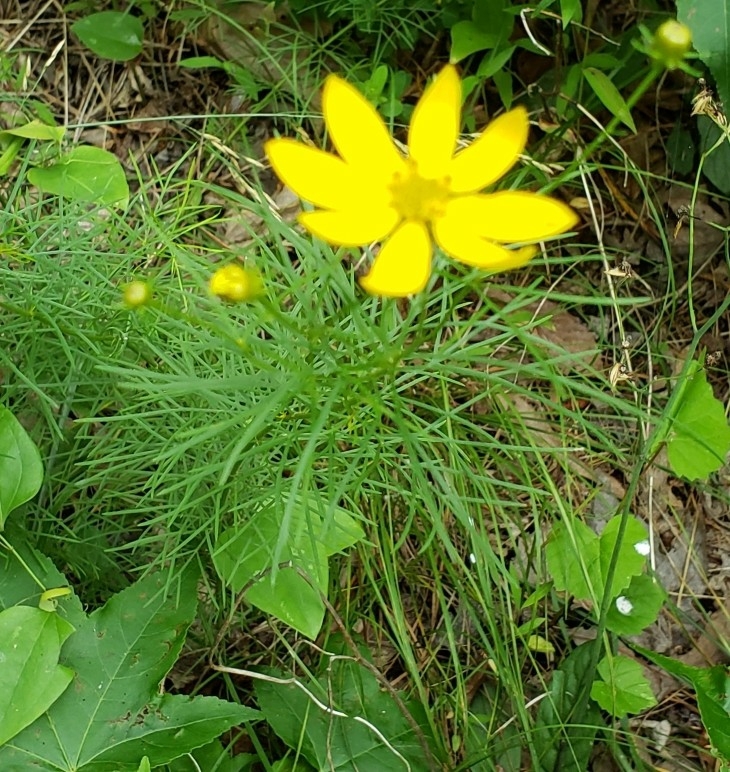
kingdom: Plantae
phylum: Tracheophyta
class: Magnoliopsida
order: Asterales
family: Asteraceae
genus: Coreopsis
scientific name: Coreopsis verticillata
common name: Whorled tickseed
